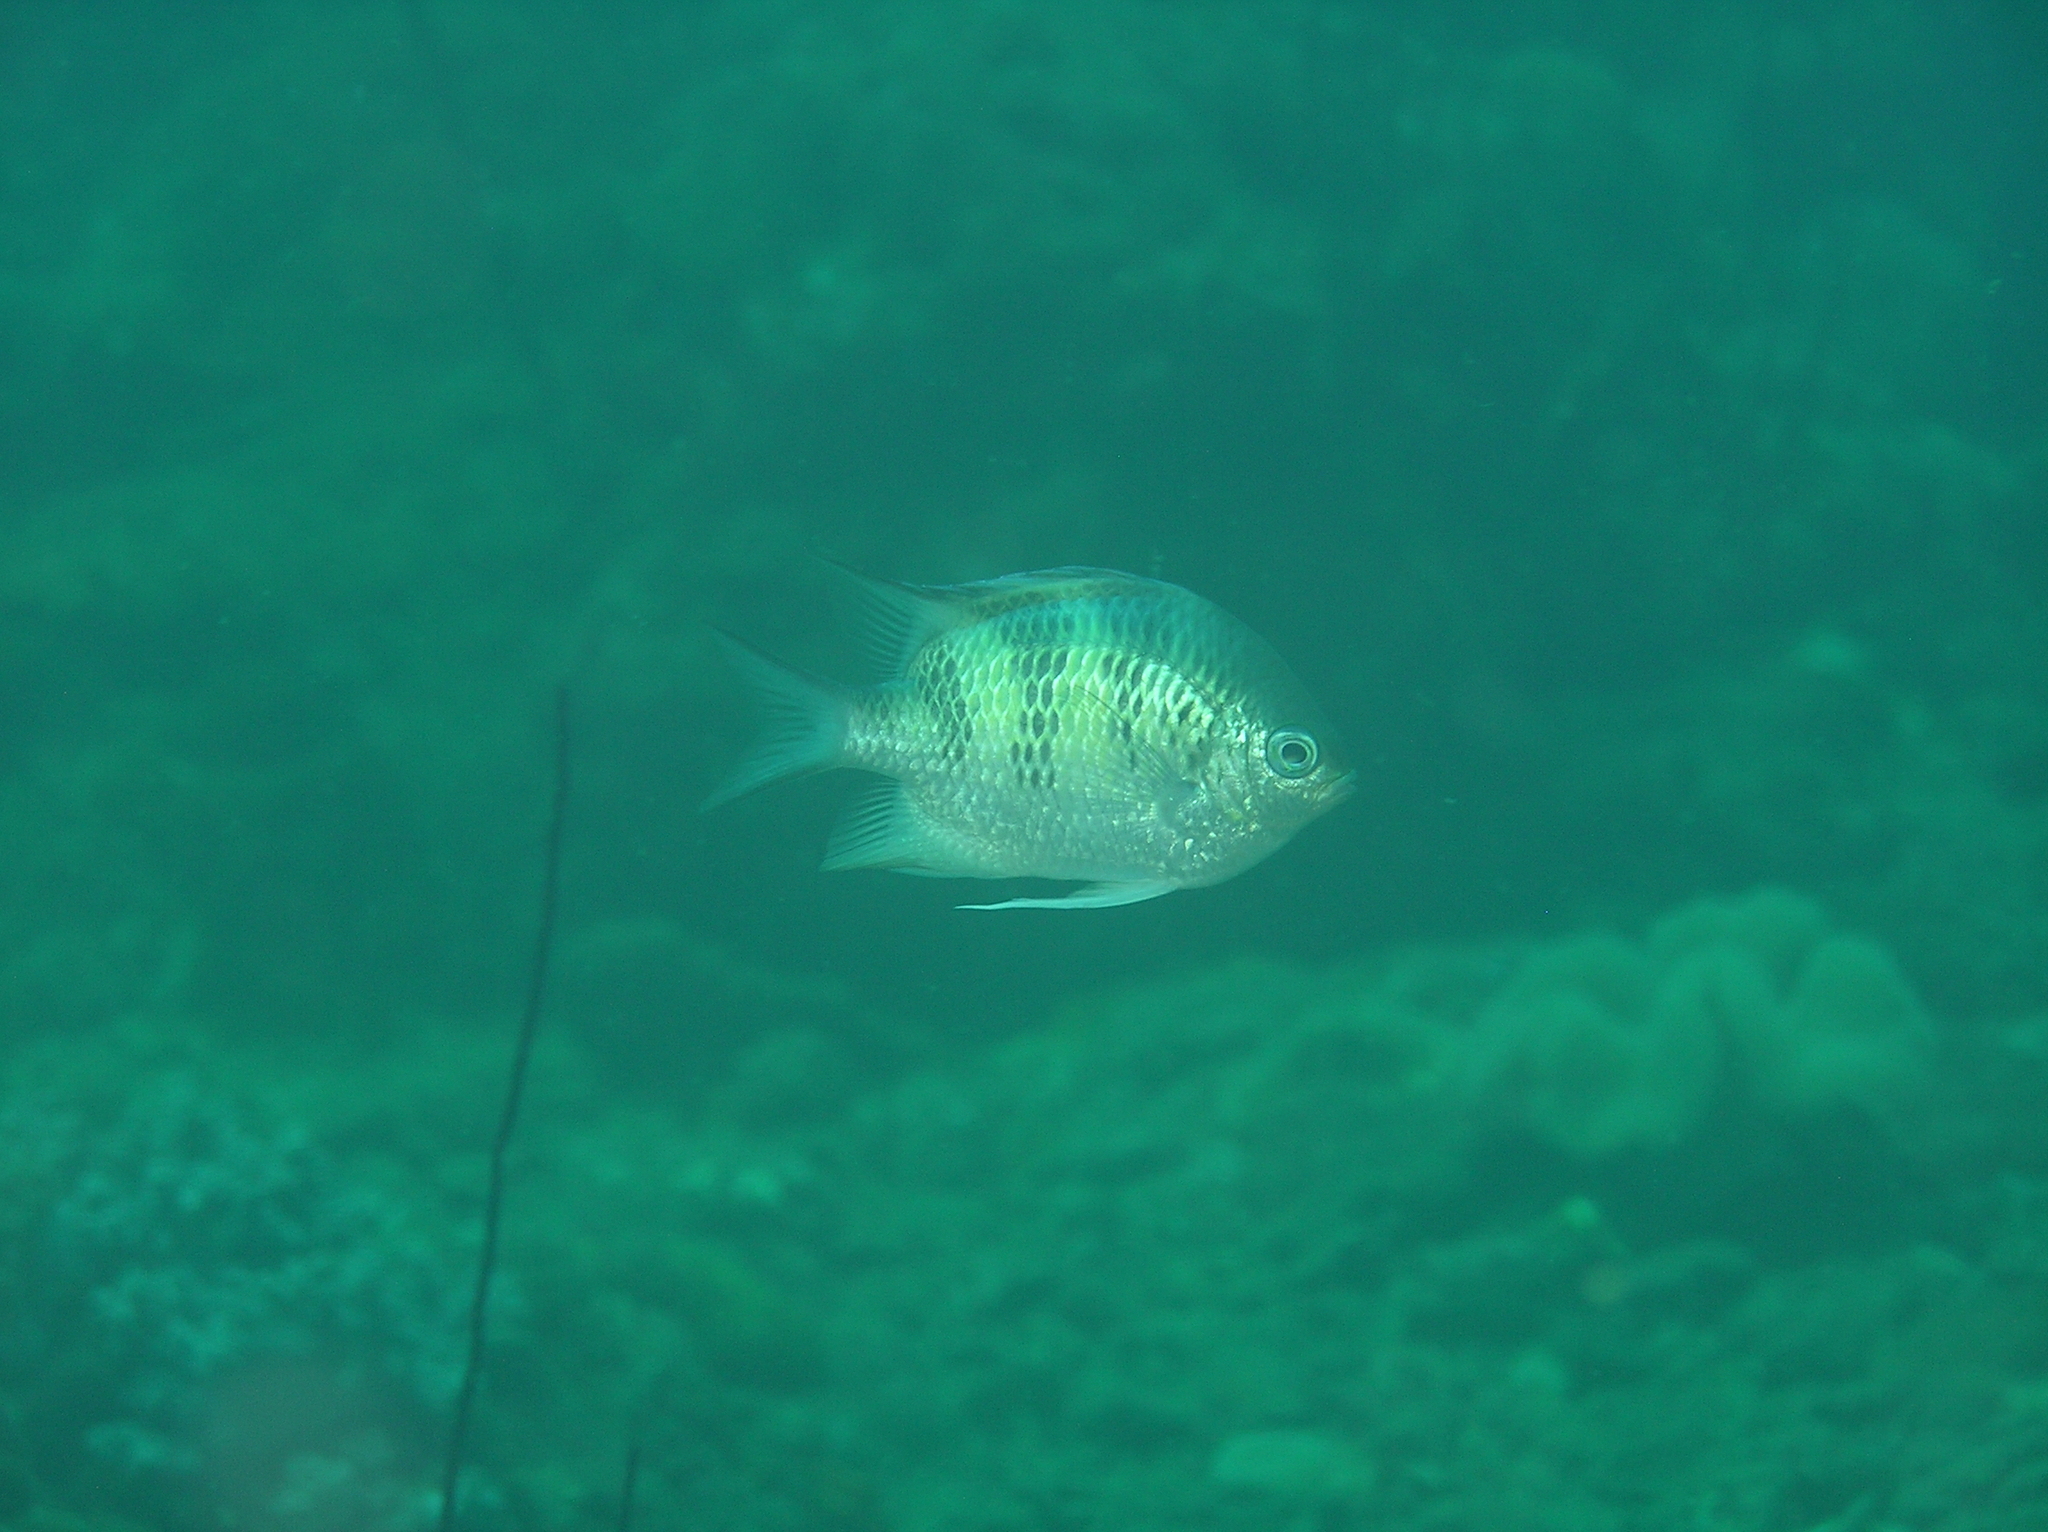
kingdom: Animalia
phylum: Chordata
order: Perciformes
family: Pomacentridae
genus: Amblyglyphidodon
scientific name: Amblyglyphidodon curacao
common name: Staghorn damsel
